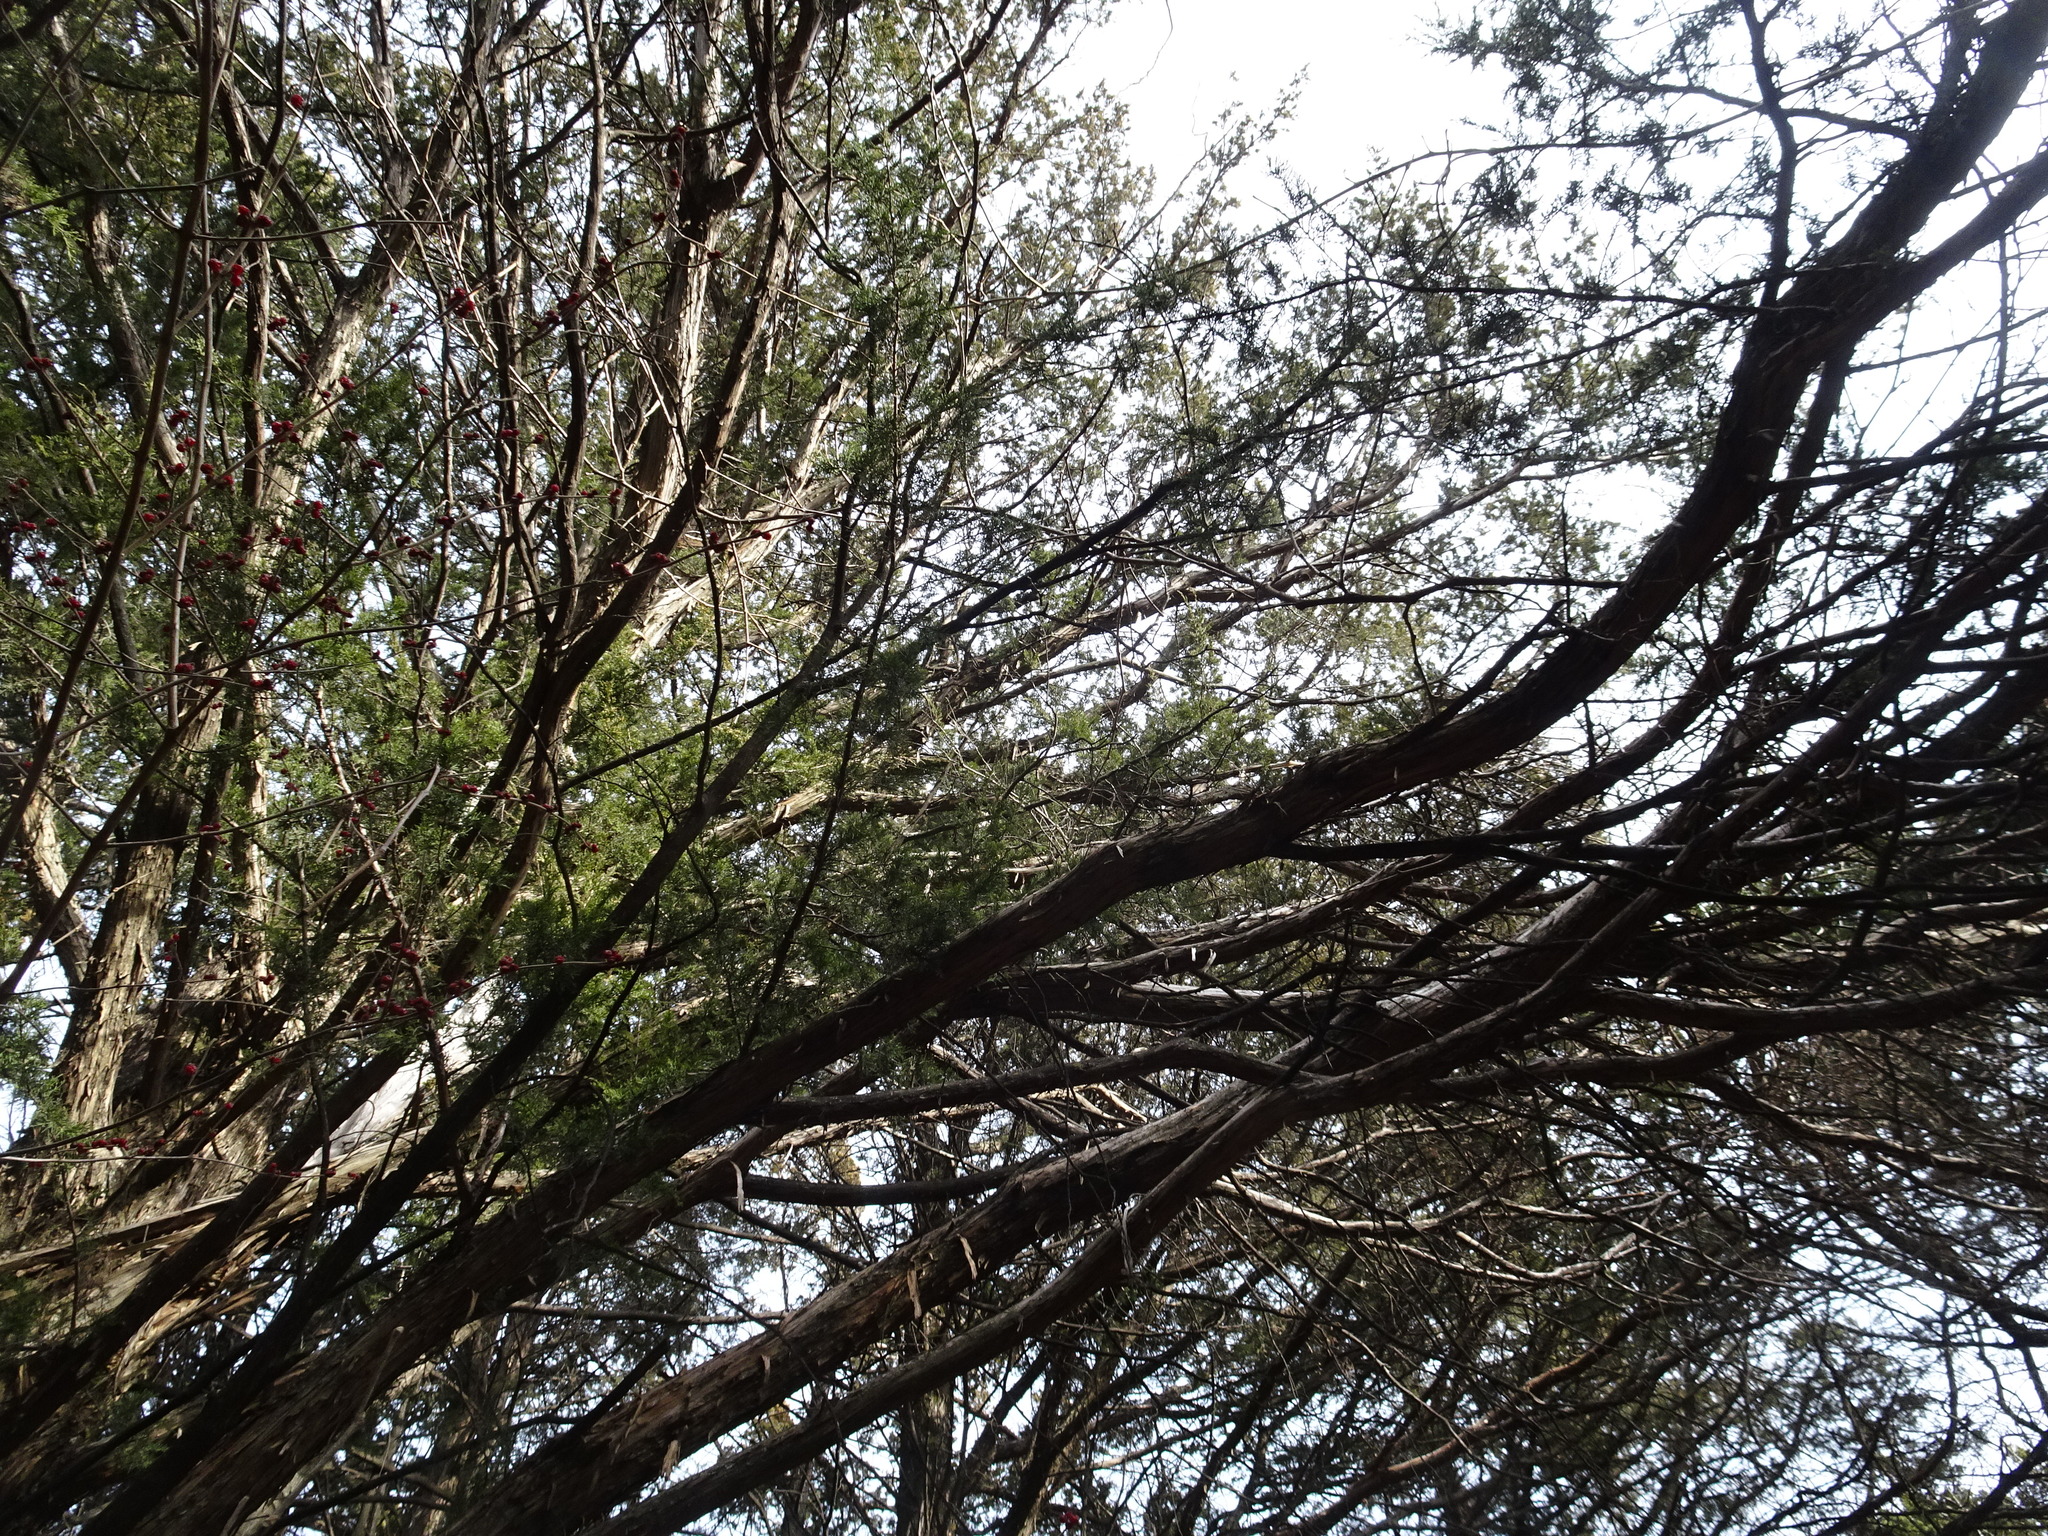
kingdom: Plantae
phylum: Tracheophyta
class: Pinopsida
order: Pinales
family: Cupressaceae
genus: Juniperus
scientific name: Juniperus virginiana
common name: Red juniper
